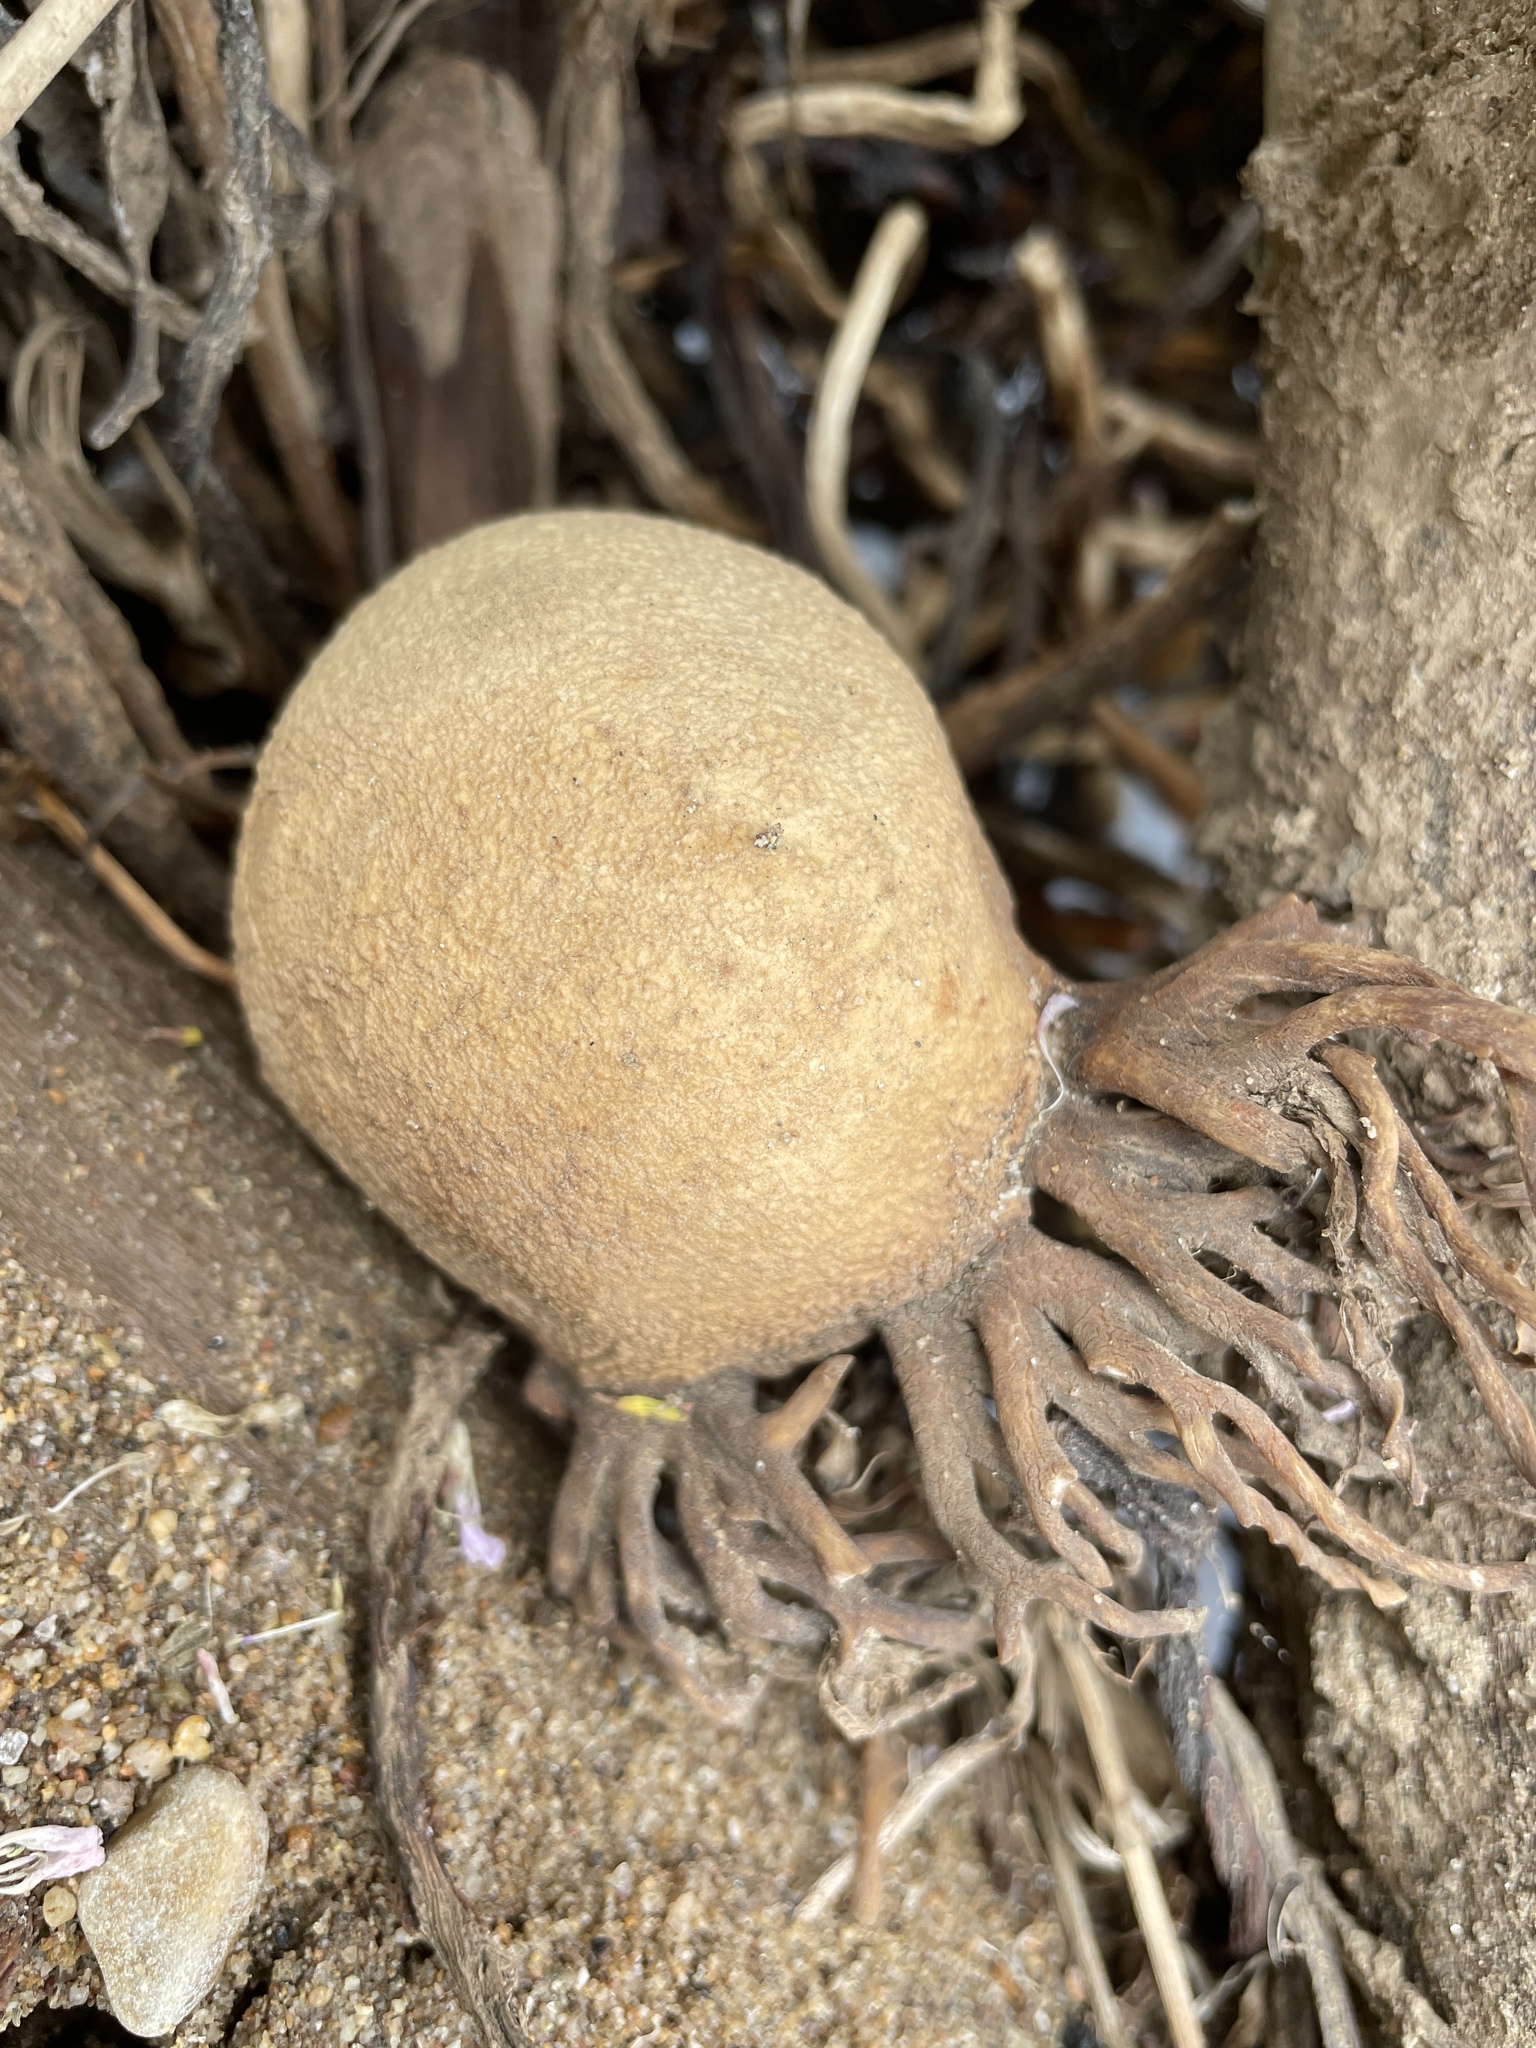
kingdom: Chromista
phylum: Ochrophyta
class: Phaeophyceae
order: Laminariales
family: Laminariaceae
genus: Nereocystis
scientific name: Nereocystis luetkeana
